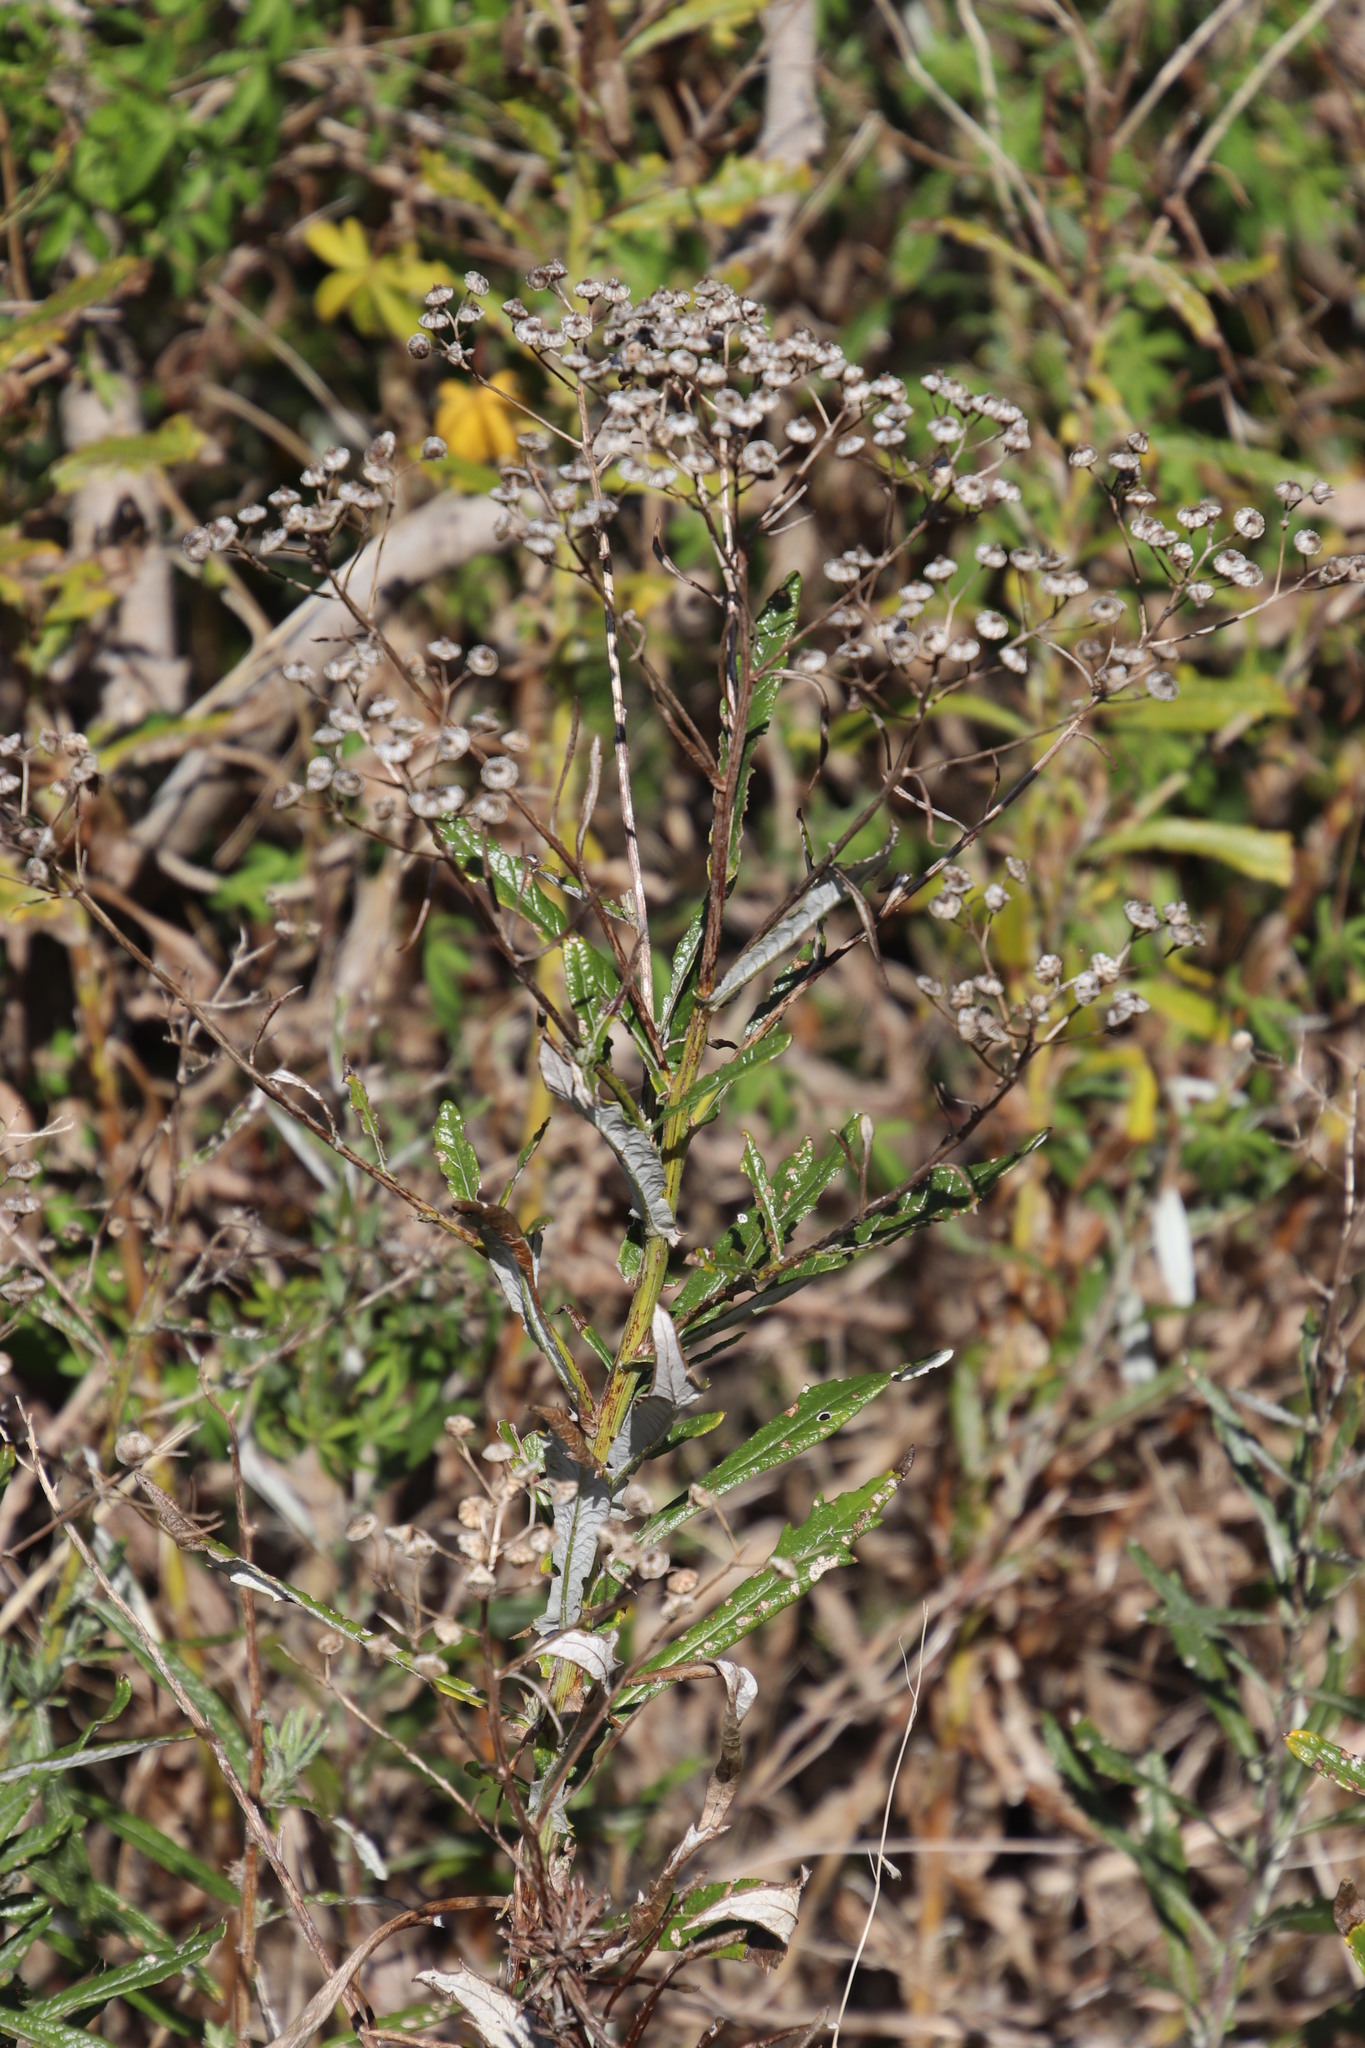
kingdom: Plantae
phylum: Tracheophyta
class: Magnoliopsida
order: Asterales
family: Asteraceae
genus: Senecio
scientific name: Senecio pterophorus
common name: Shoddy ragwort
